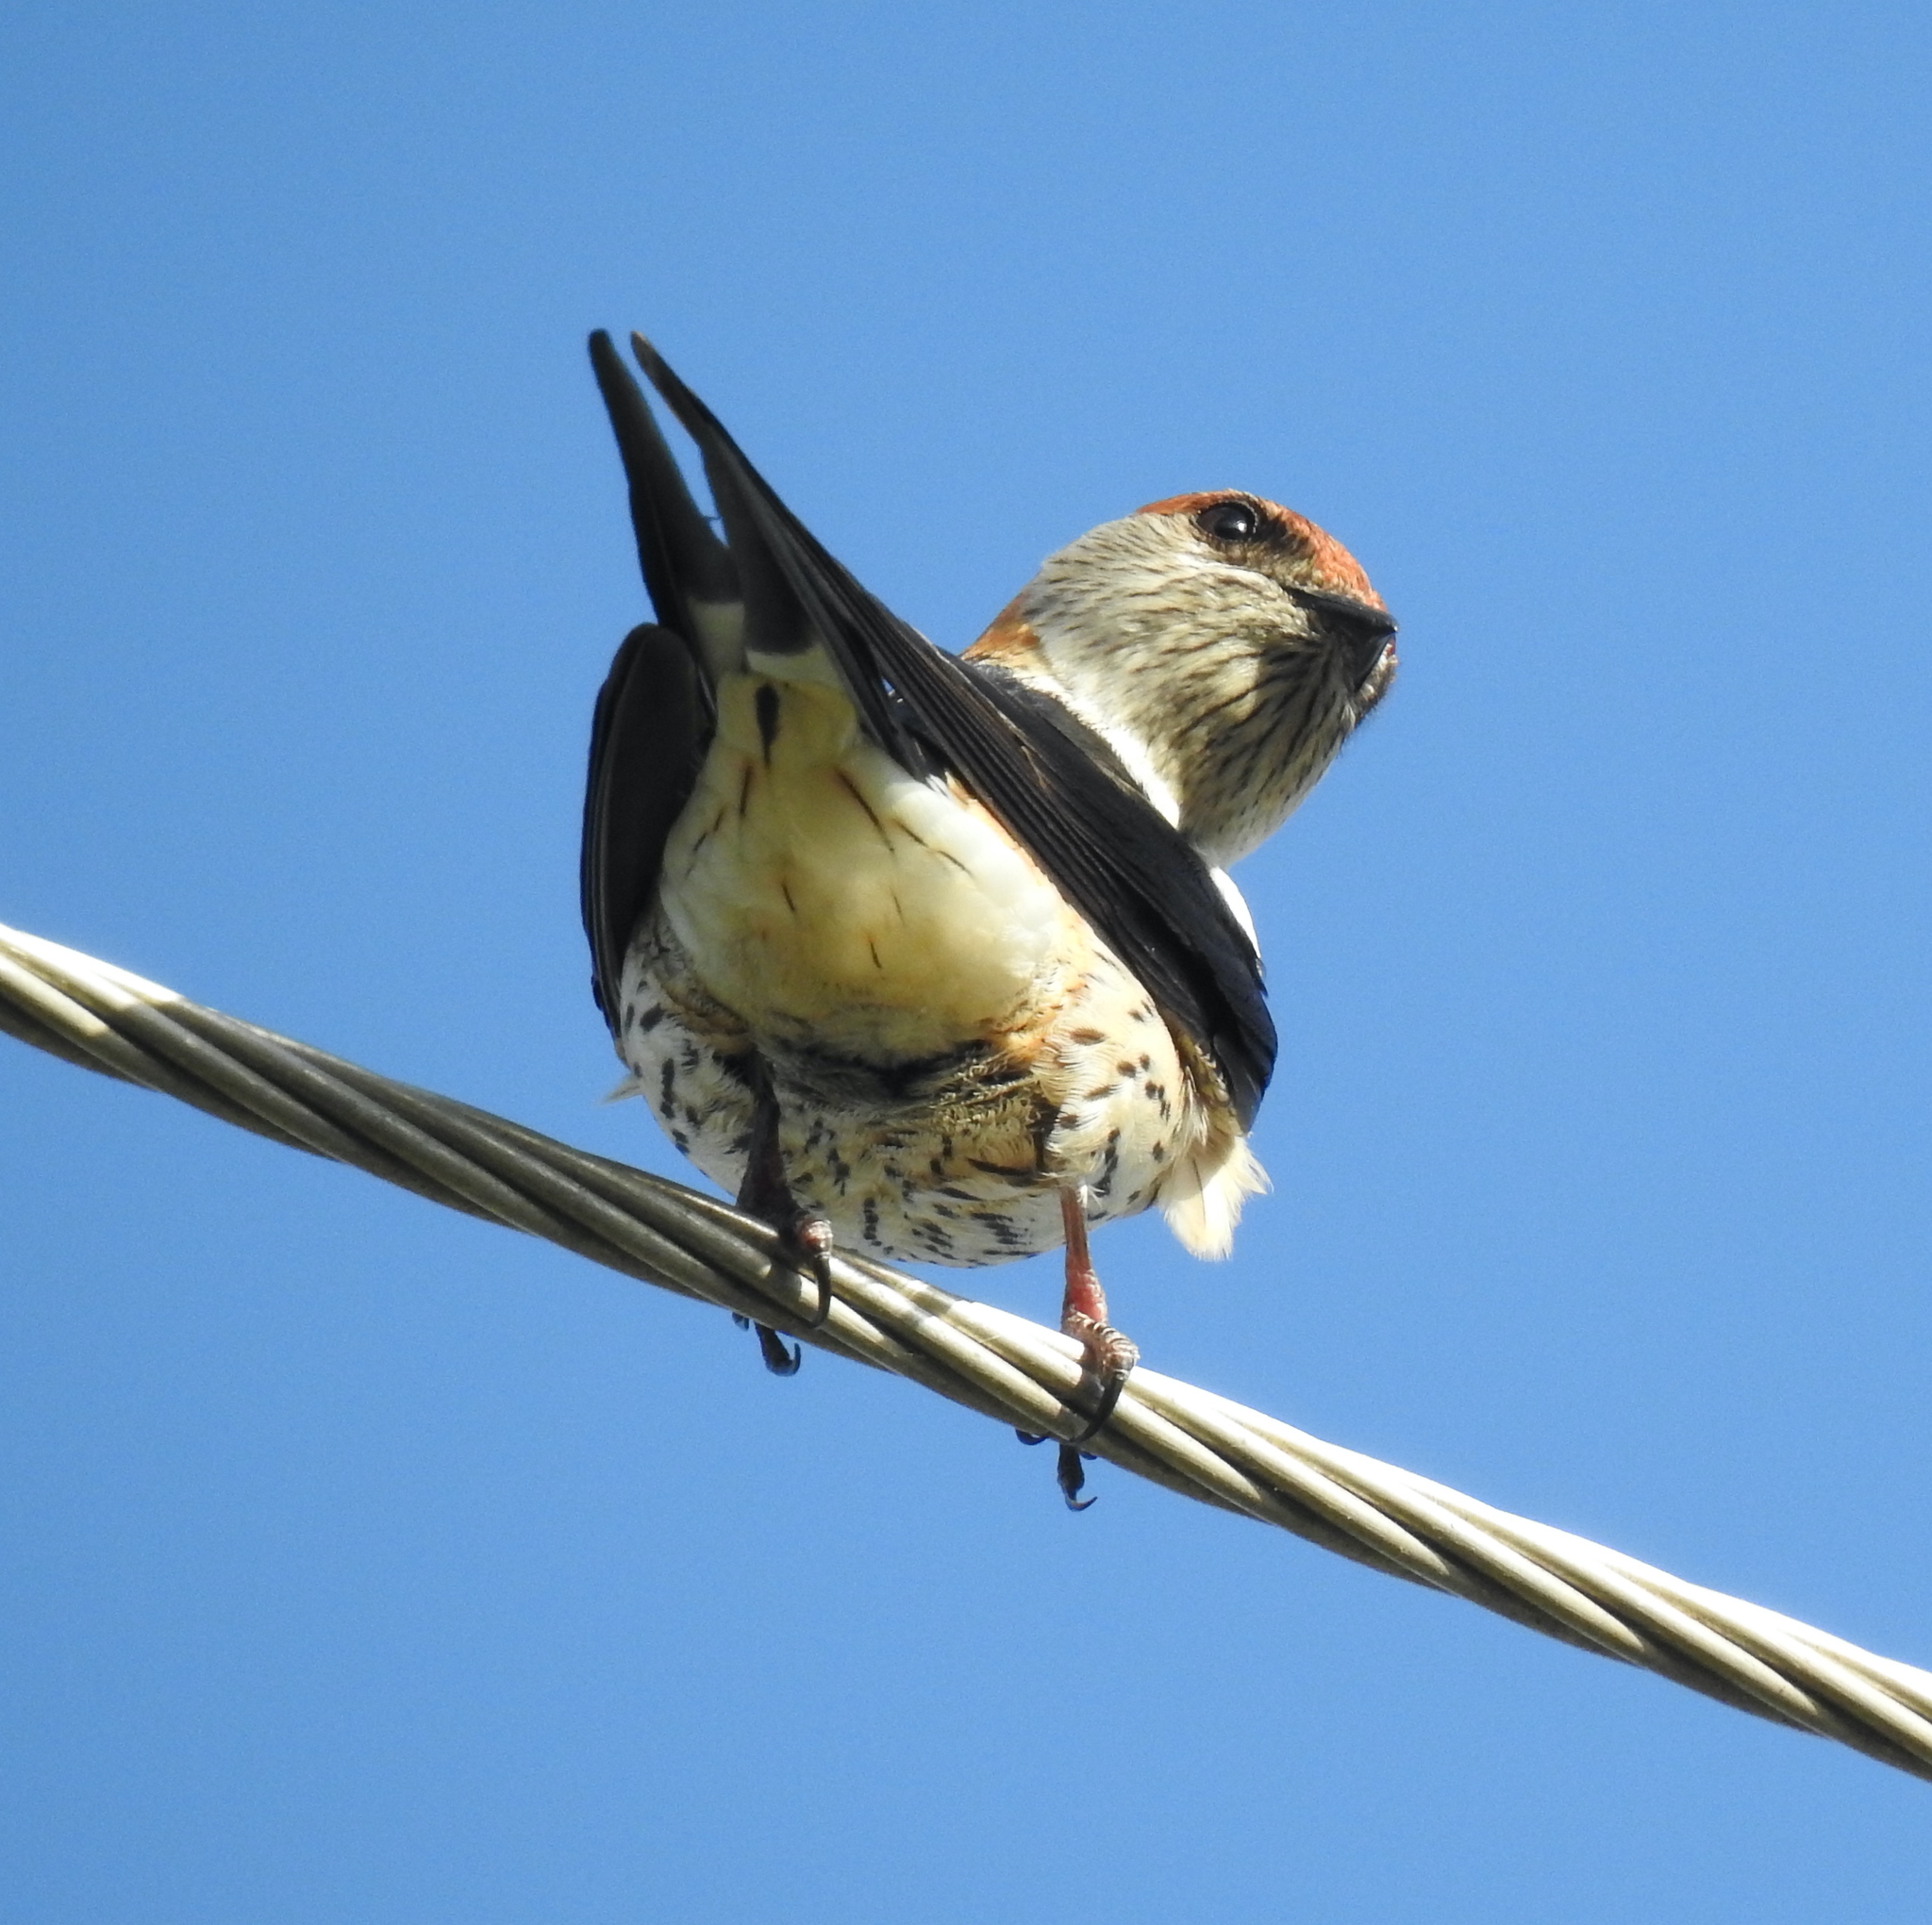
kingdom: Animalia
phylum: Chordata
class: Aves
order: Passeriformes
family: Hirundinidae
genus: Cecropis
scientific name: Cecropis cucullata
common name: Greater striped-swallow
